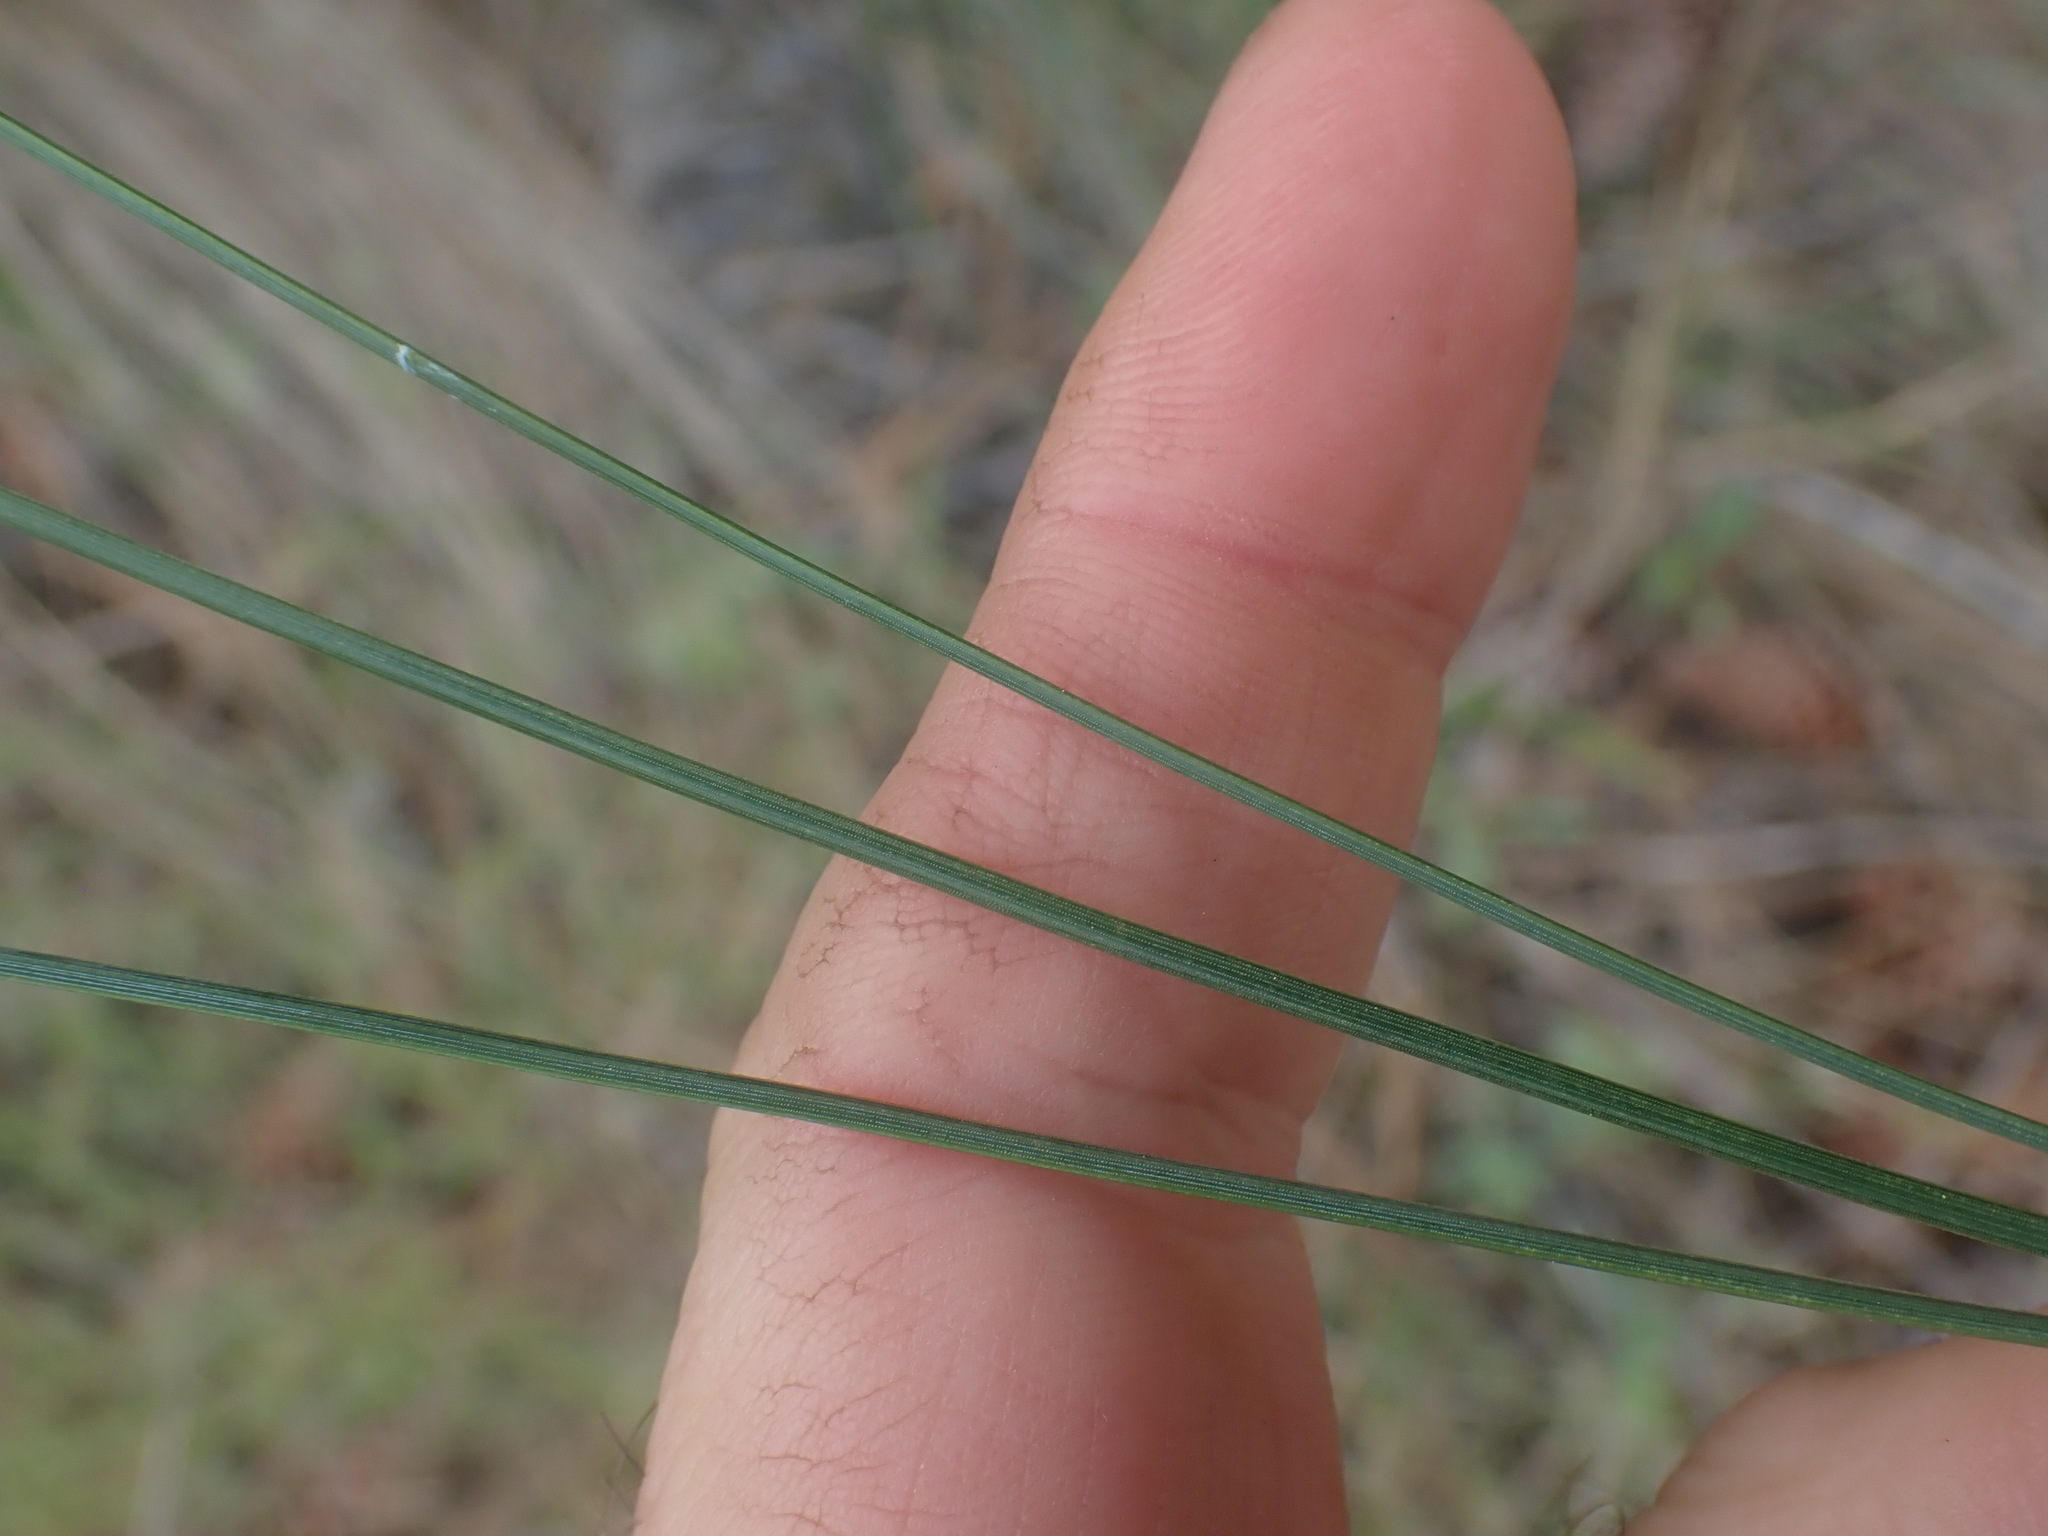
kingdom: Plantae
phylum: Tracheophyta
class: Pinopsida
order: Pinales
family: Pinaceae
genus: Pinus
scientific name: Pinus ponderosa
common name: Western yellow-pine
